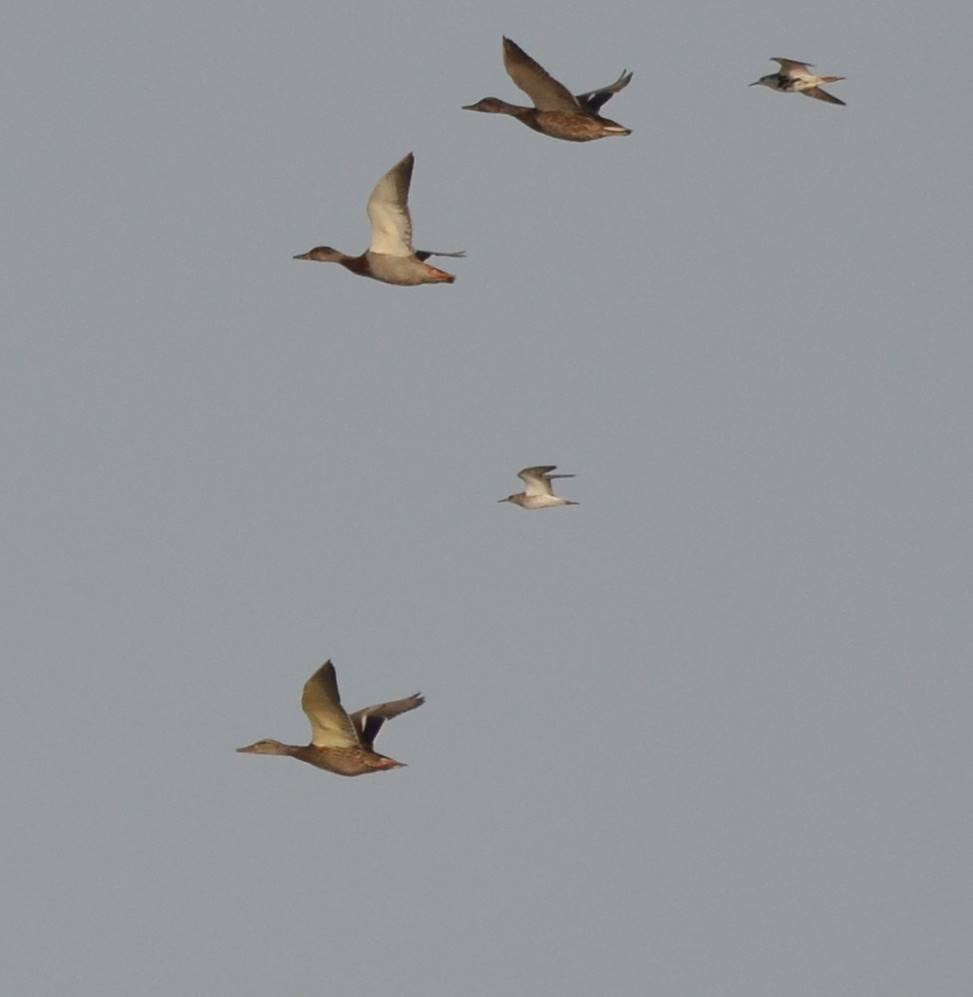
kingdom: Animalia
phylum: Chordata
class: Aves
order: Anseriformes
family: Anatidae
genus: Anas
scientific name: Anas platyrhynchos
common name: Mallard
